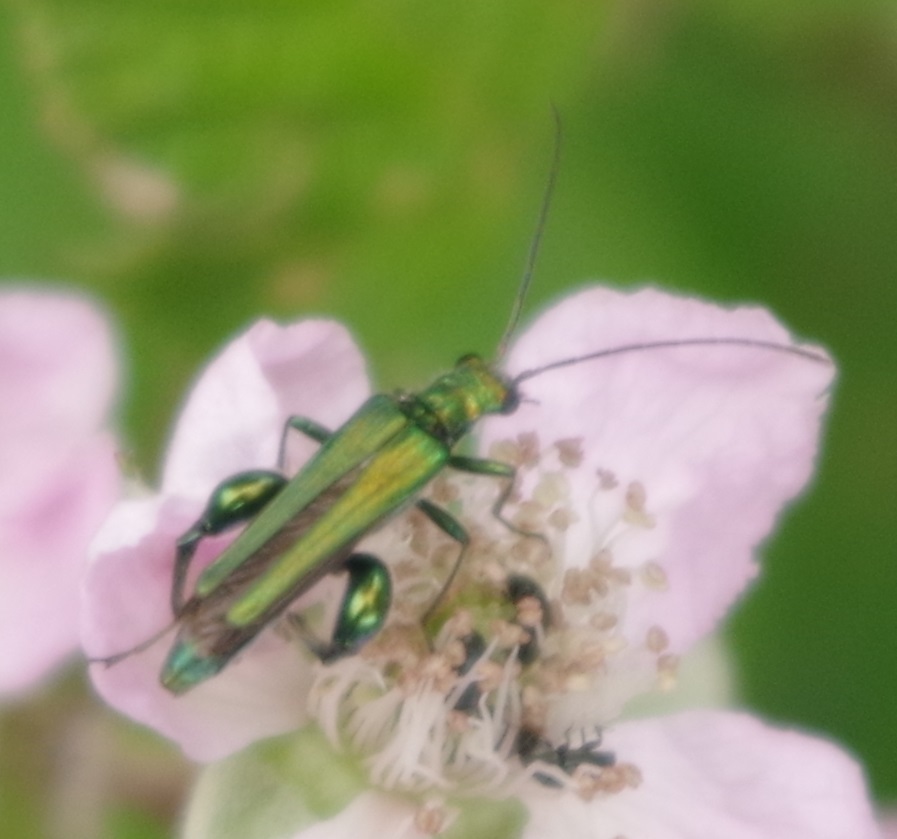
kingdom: Animalia
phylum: Arthropoda
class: Insecta
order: Coleoptera
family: Oedemeridae
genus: Oedemera
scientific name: Oedemera nobilis
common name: Swollen-thighed beetle
